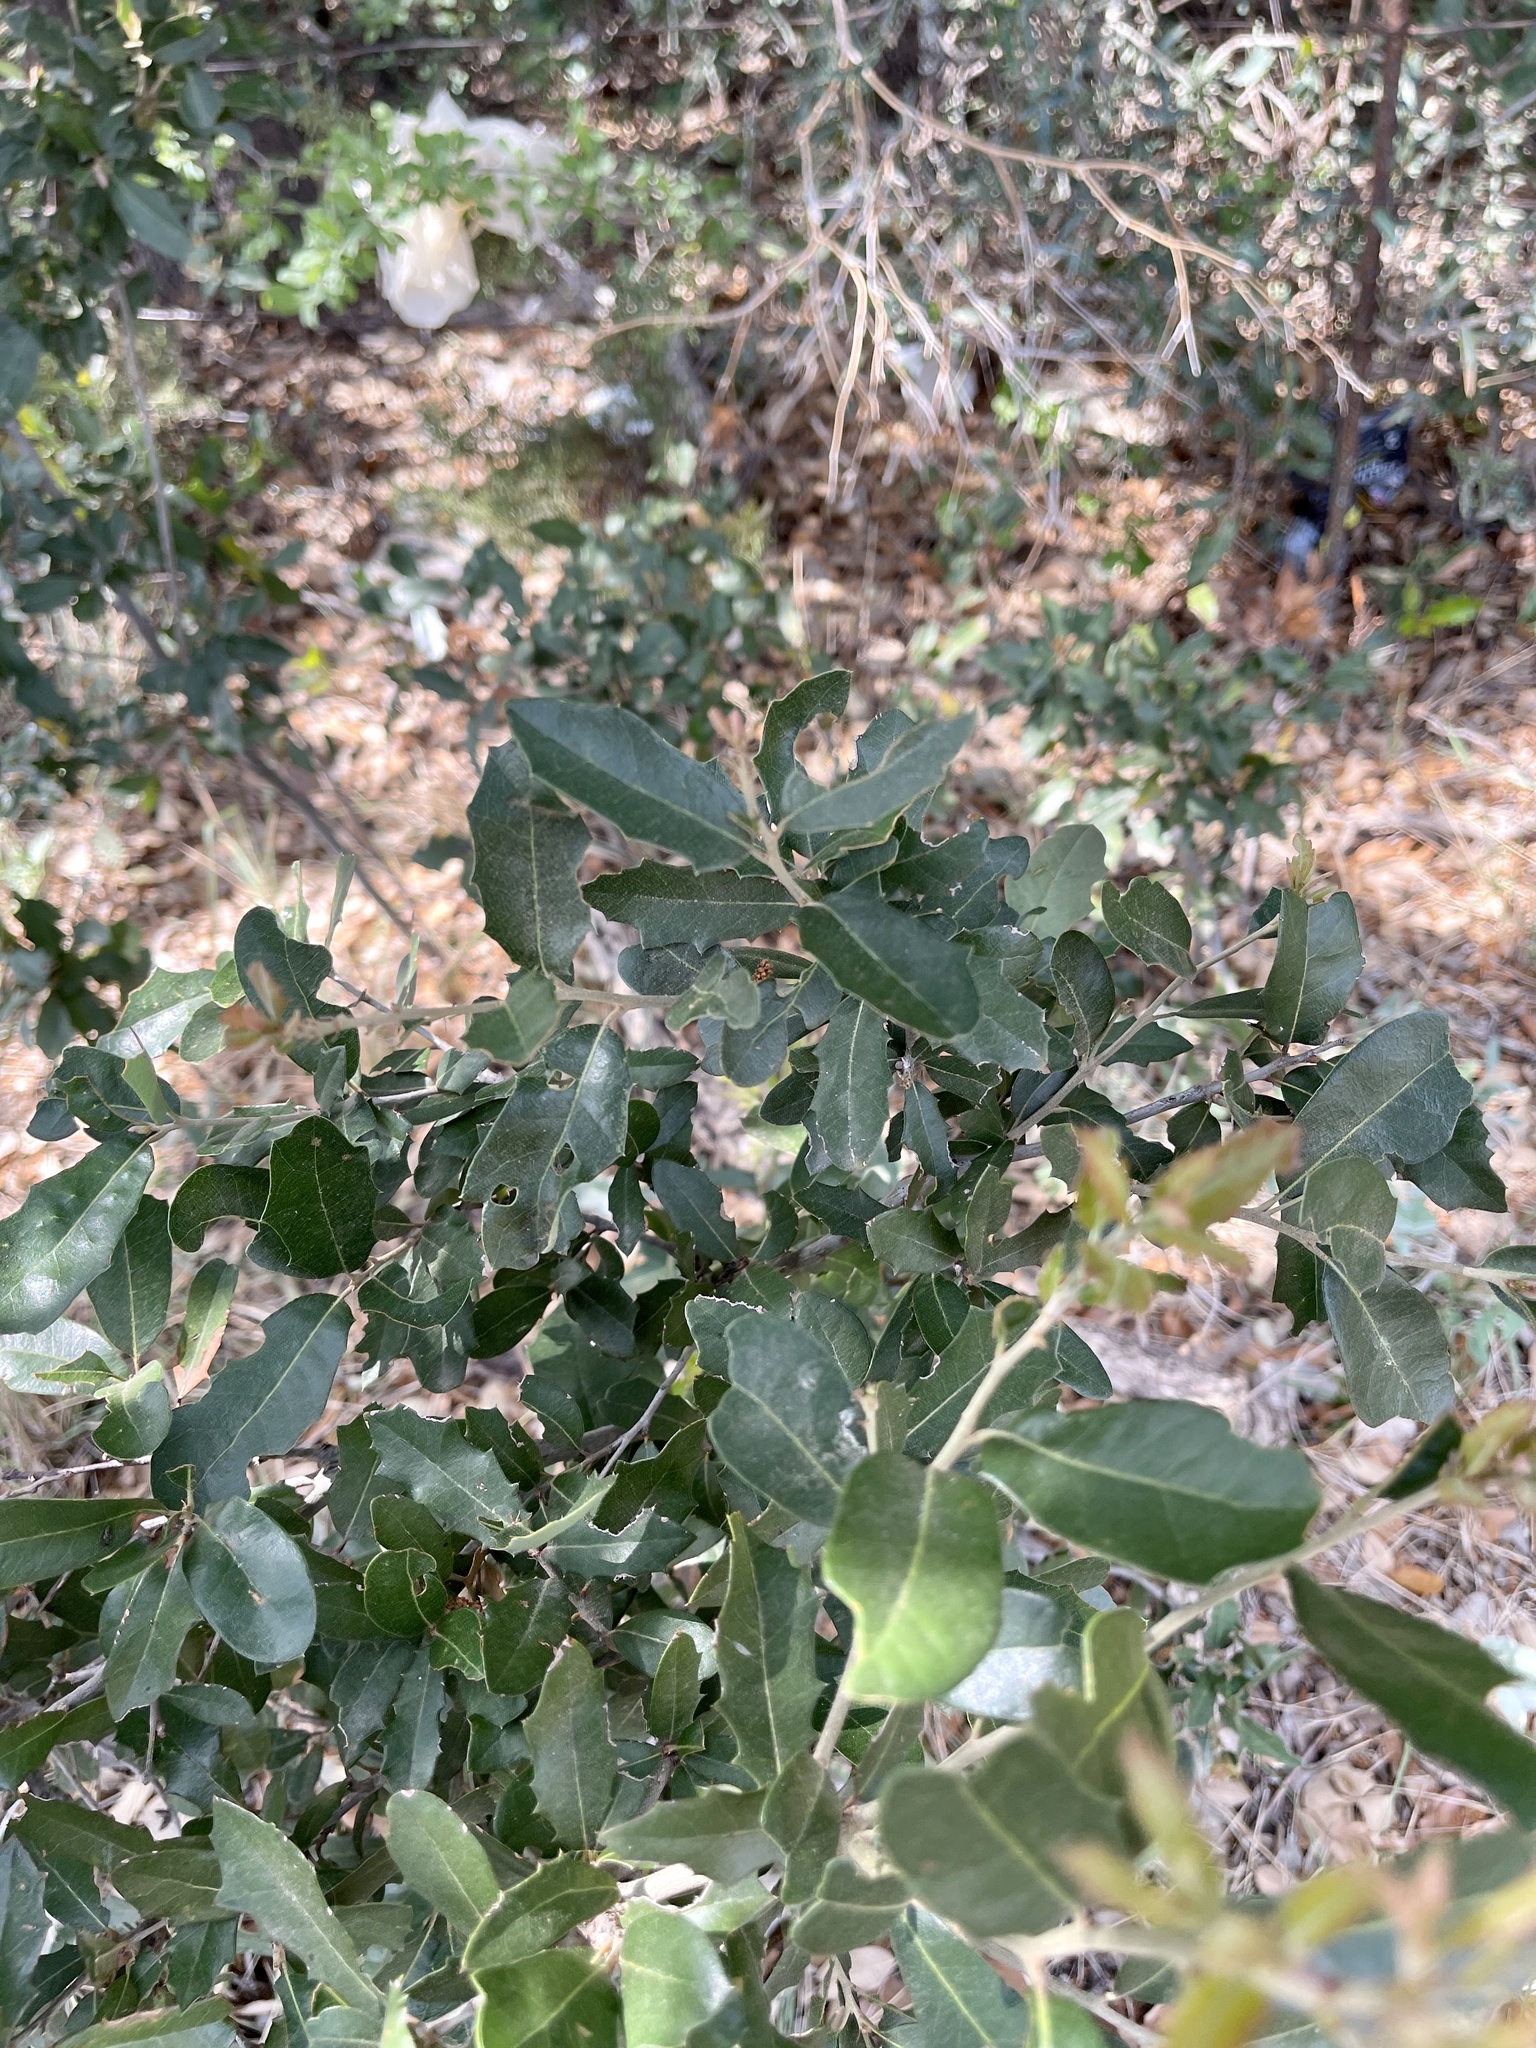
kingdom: Plantae
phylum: Tracheophyta
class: Magnoliopsida
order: Fagales
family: Fagaceae
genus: Quercus
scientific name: Quercus fusiformis
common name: Texas live oak
